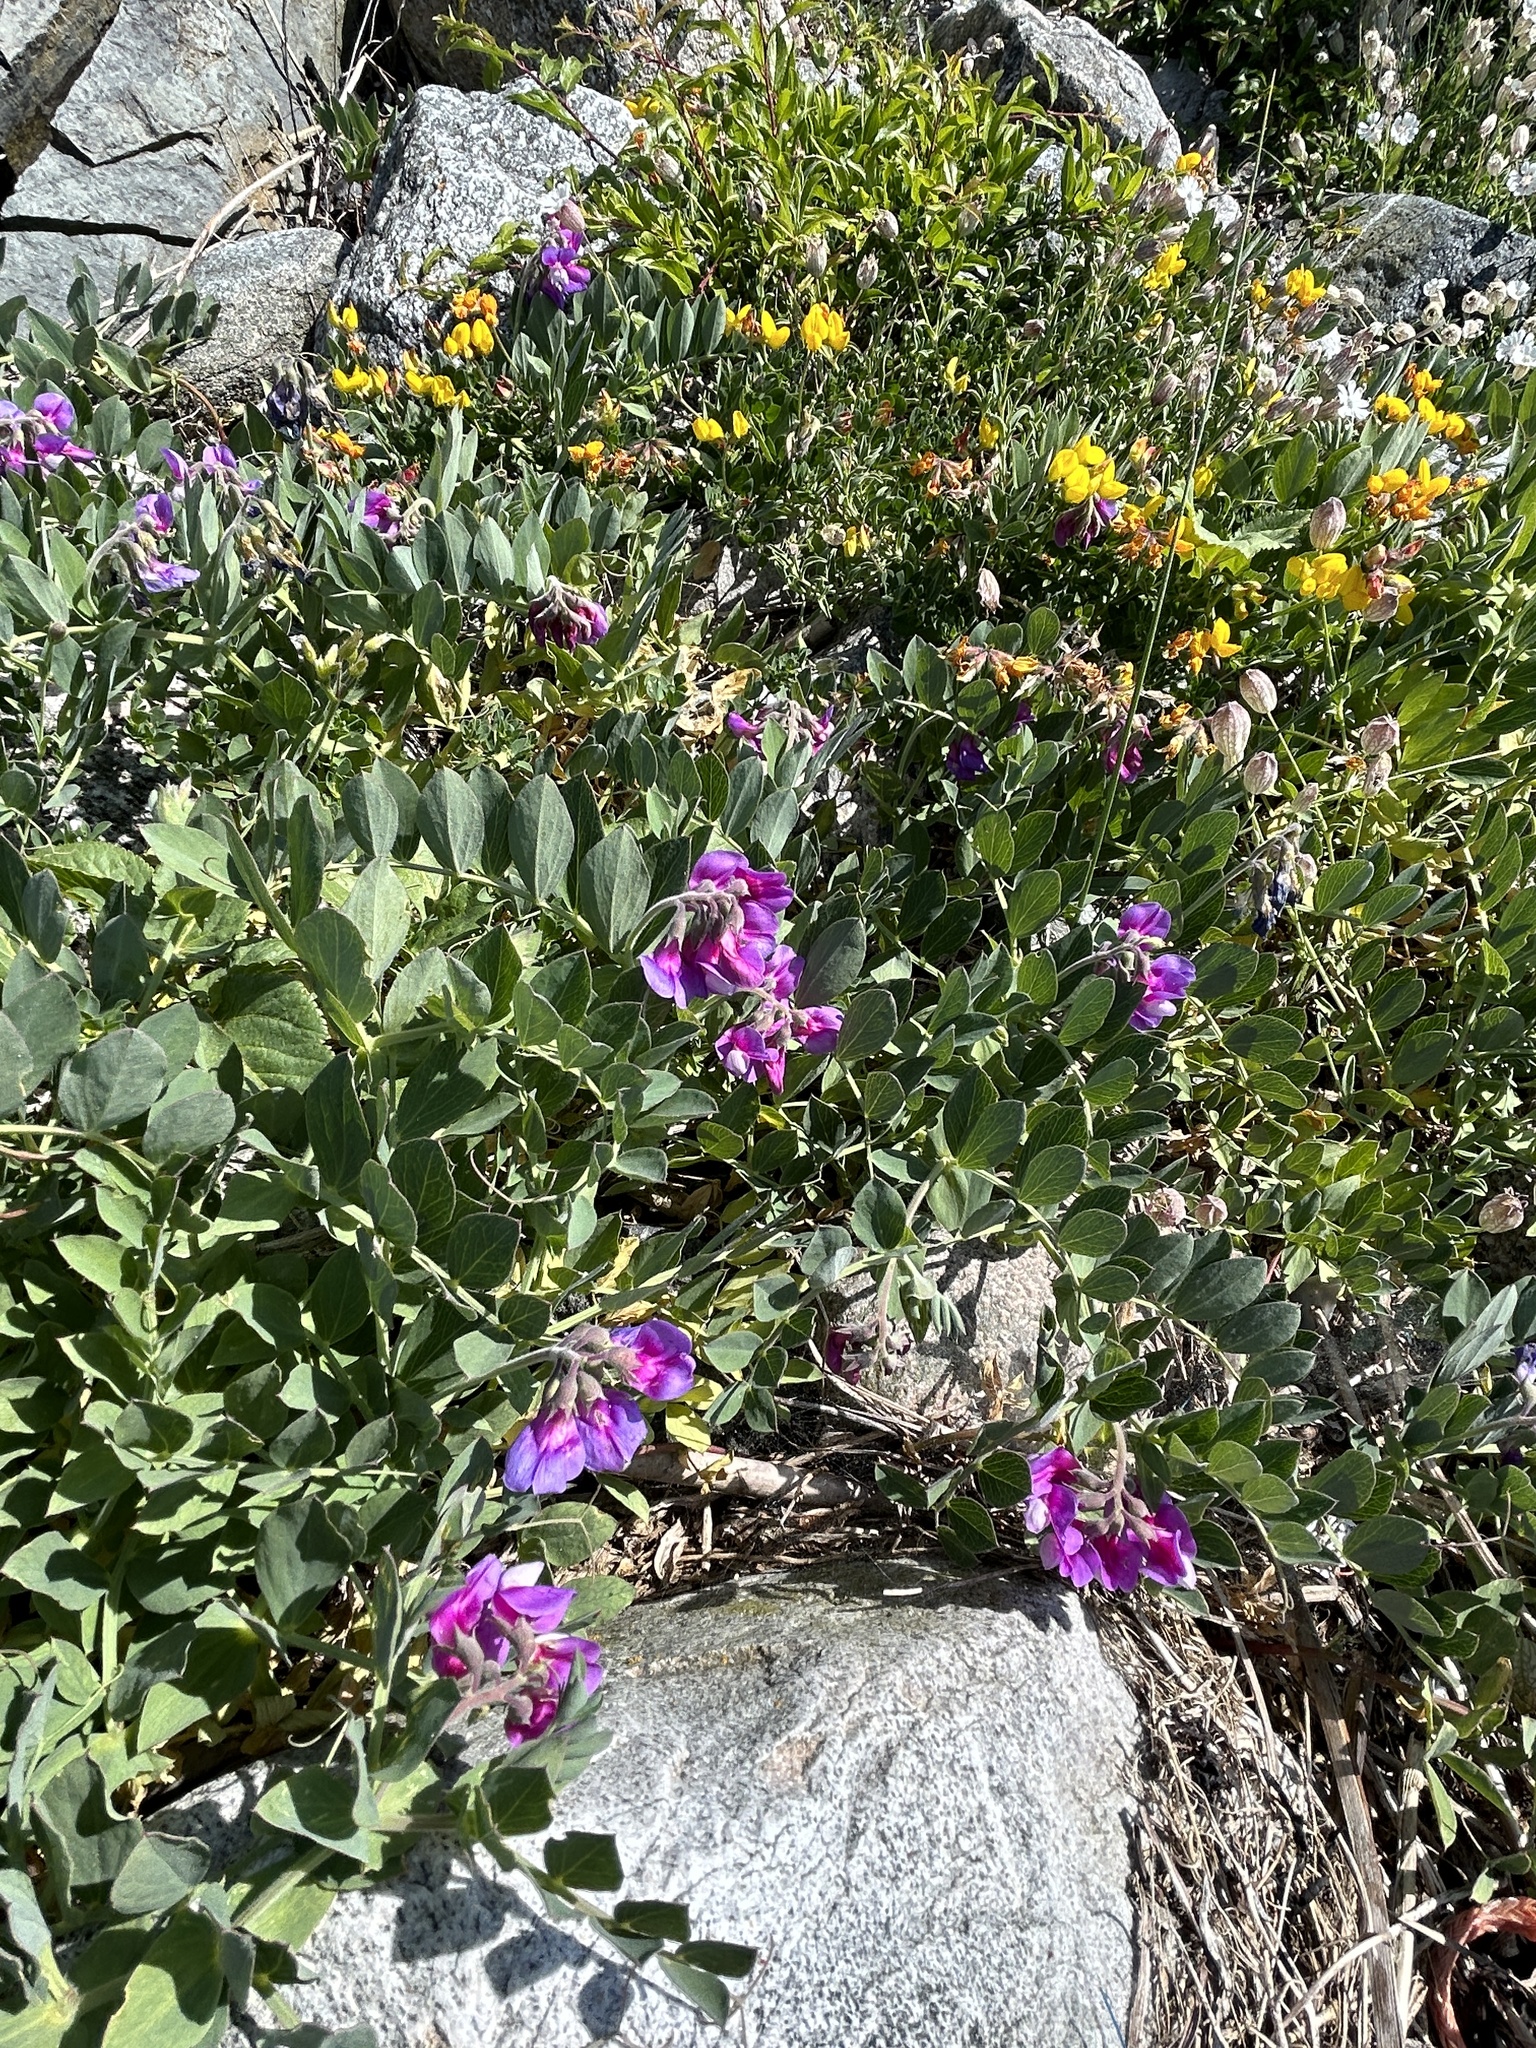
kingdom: Plantae
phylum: Tracheophyta
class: Magnoliopsida
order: Fabales
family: Fabaceae
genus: Lathyrus
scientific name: Lathyrus japonicus
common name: Sea pea
